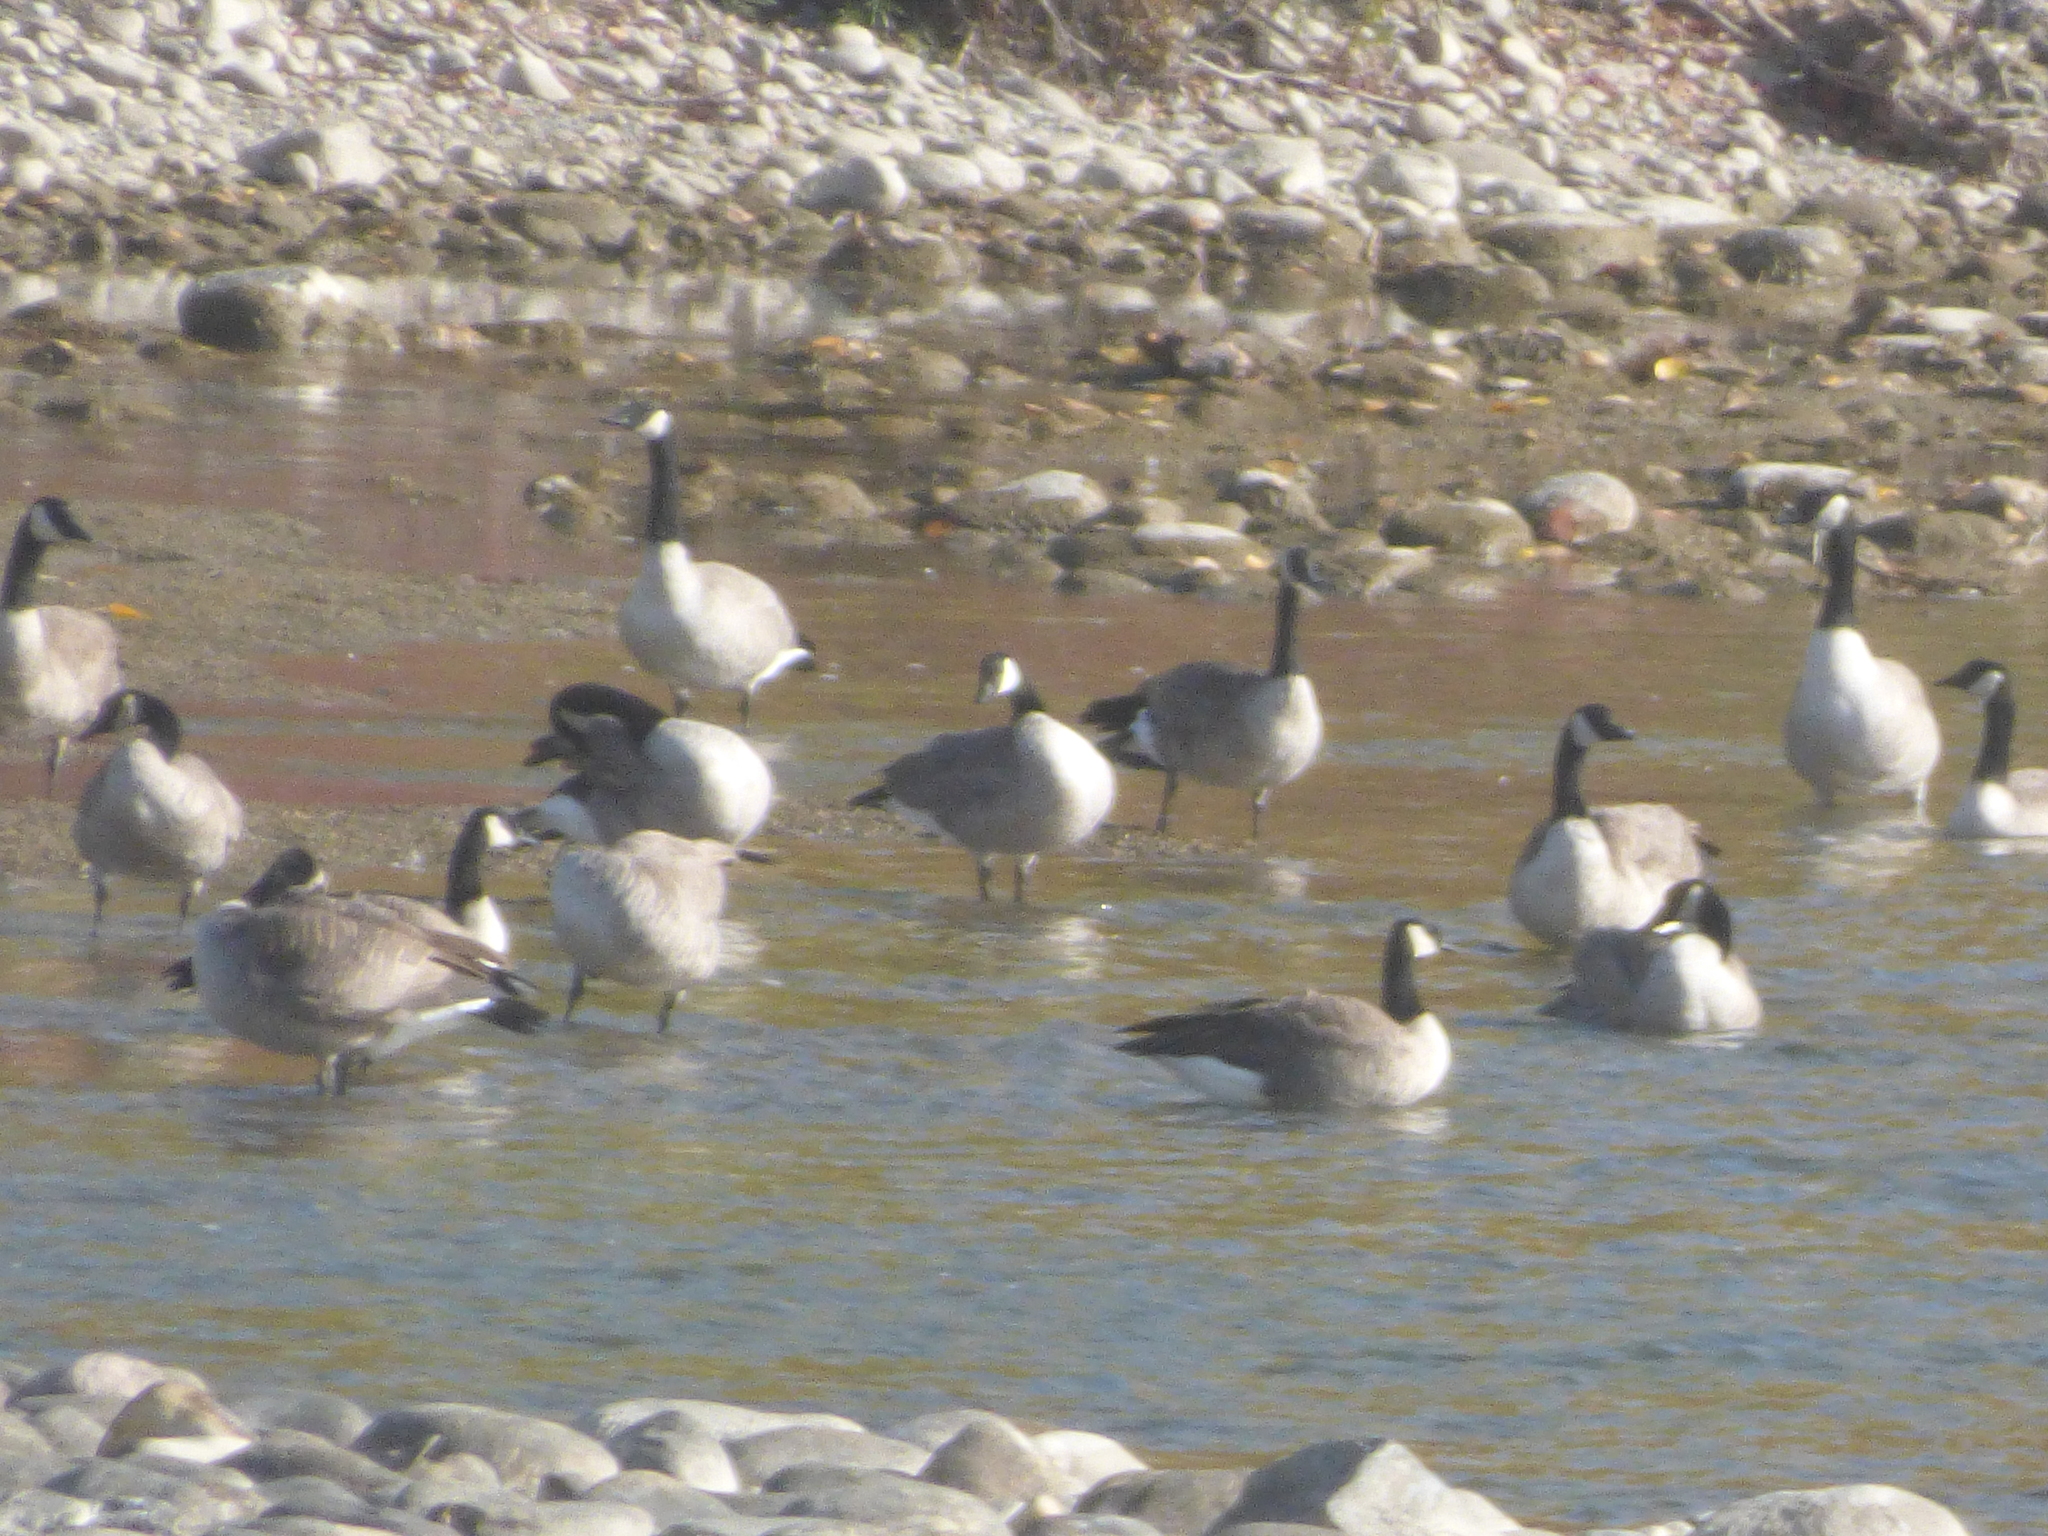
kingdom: Animalia
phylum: Chordata
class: Aves
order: Anseriformes
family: Anatidae
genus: Branta
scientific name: Branta canadensis
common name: Canada goose
